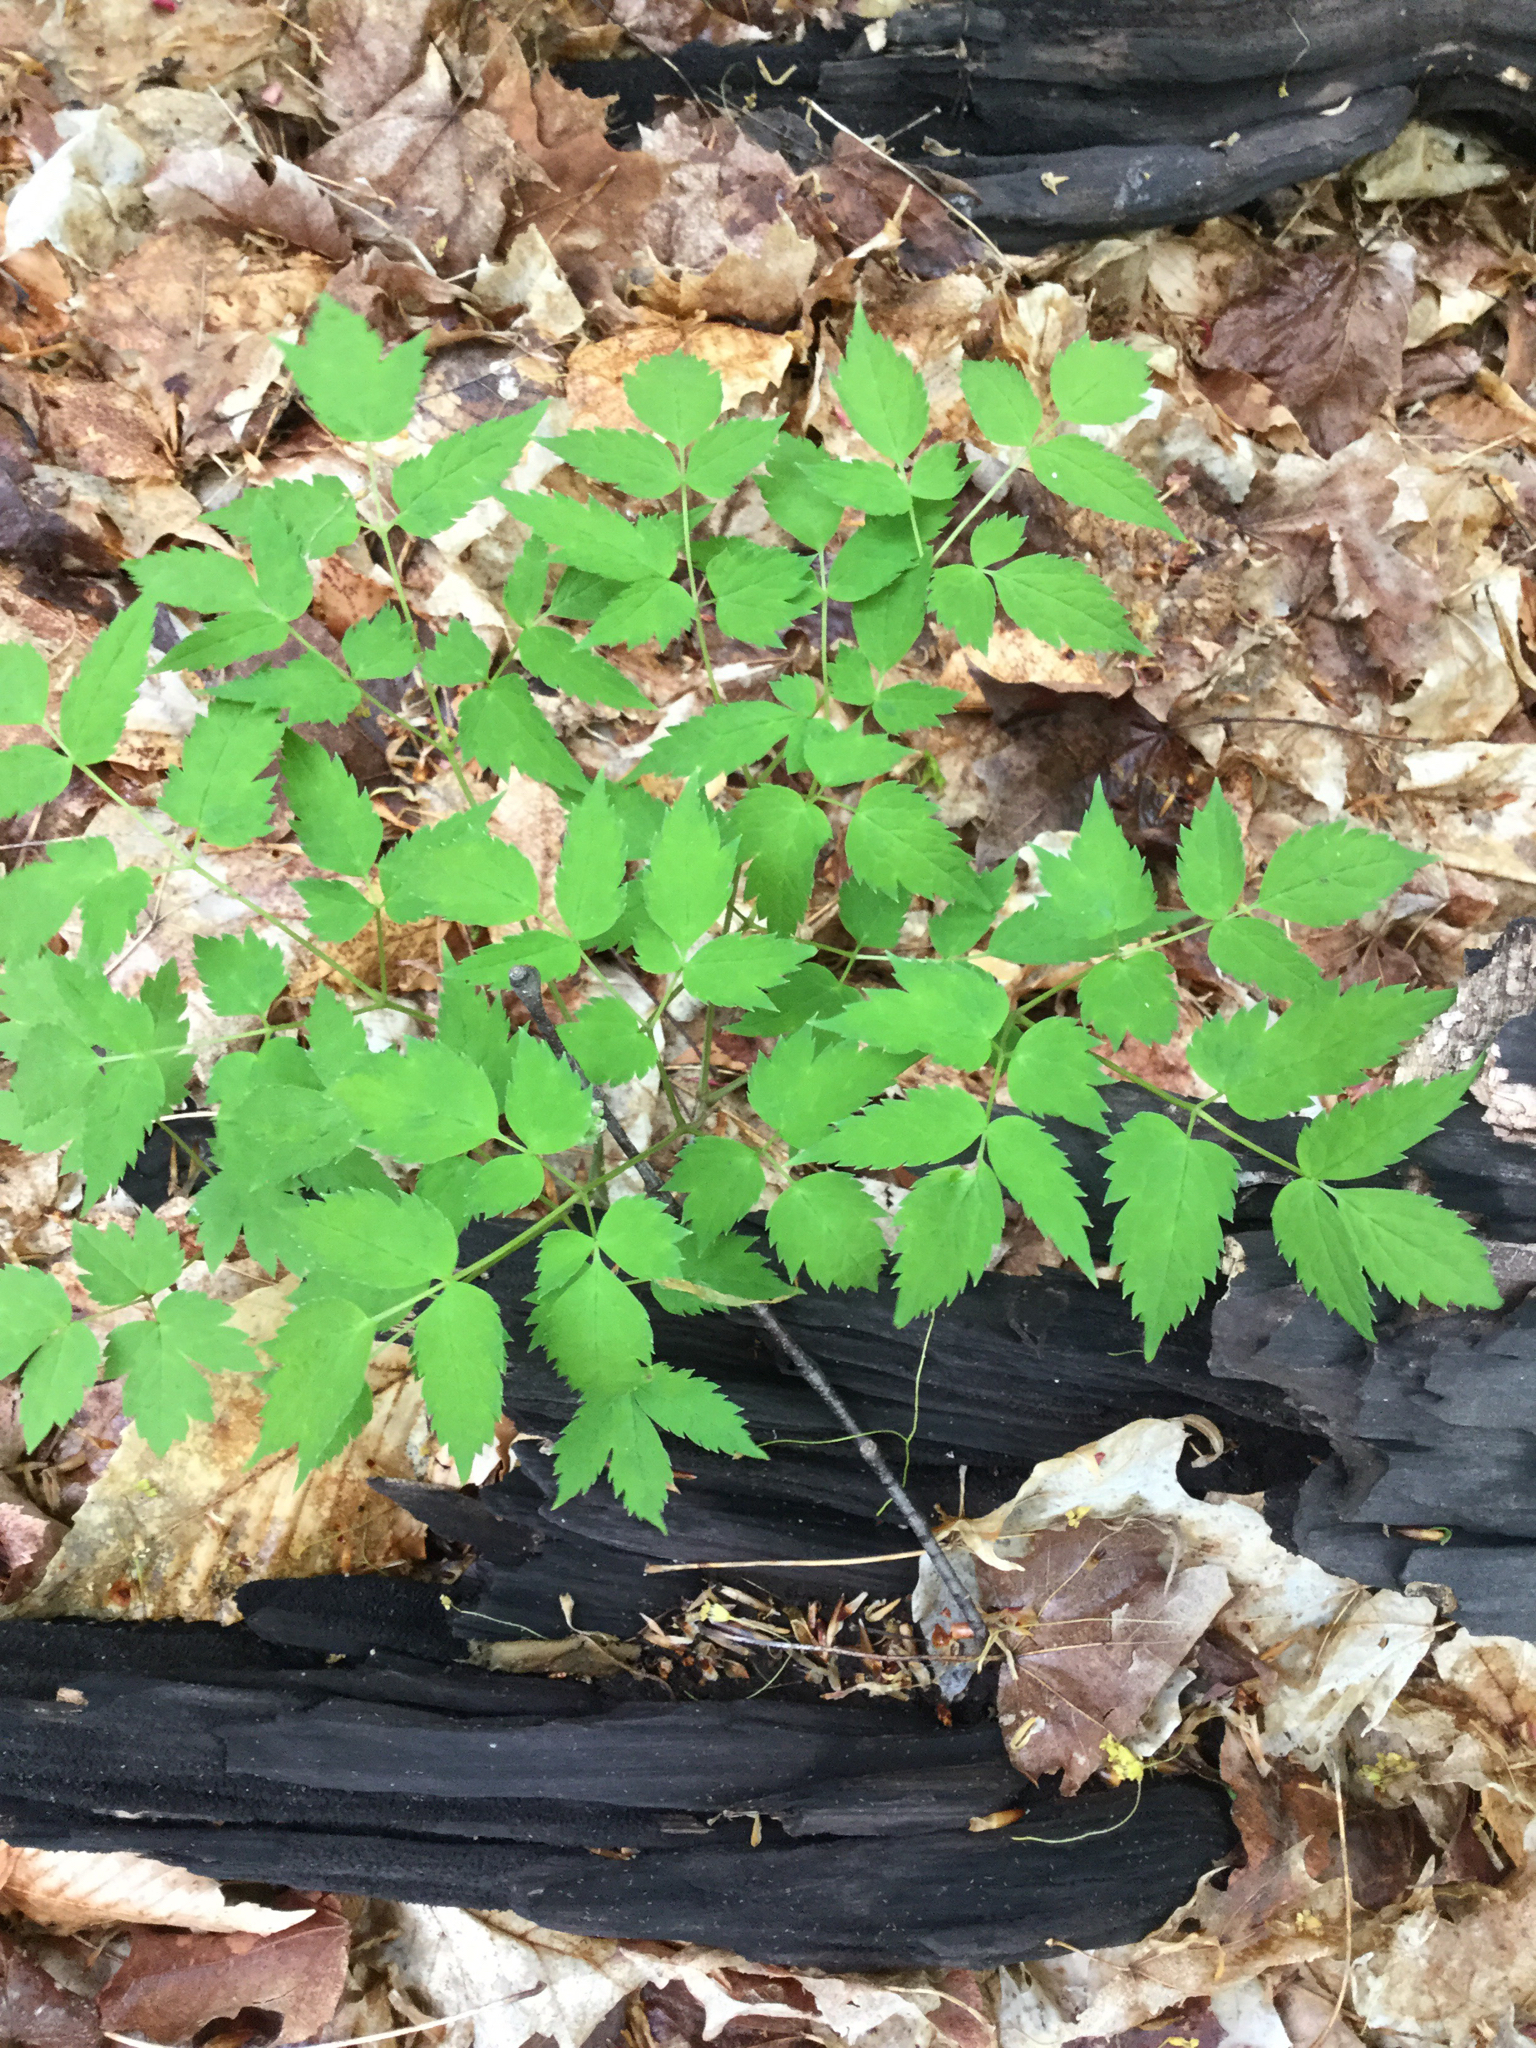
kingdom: Plantae
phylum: Tracheophyta
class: Magnoliopsida
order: Ranunculales
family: Ranunculaceae
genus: Actaea
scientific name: Actaea racemosa
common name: Black cohosh
